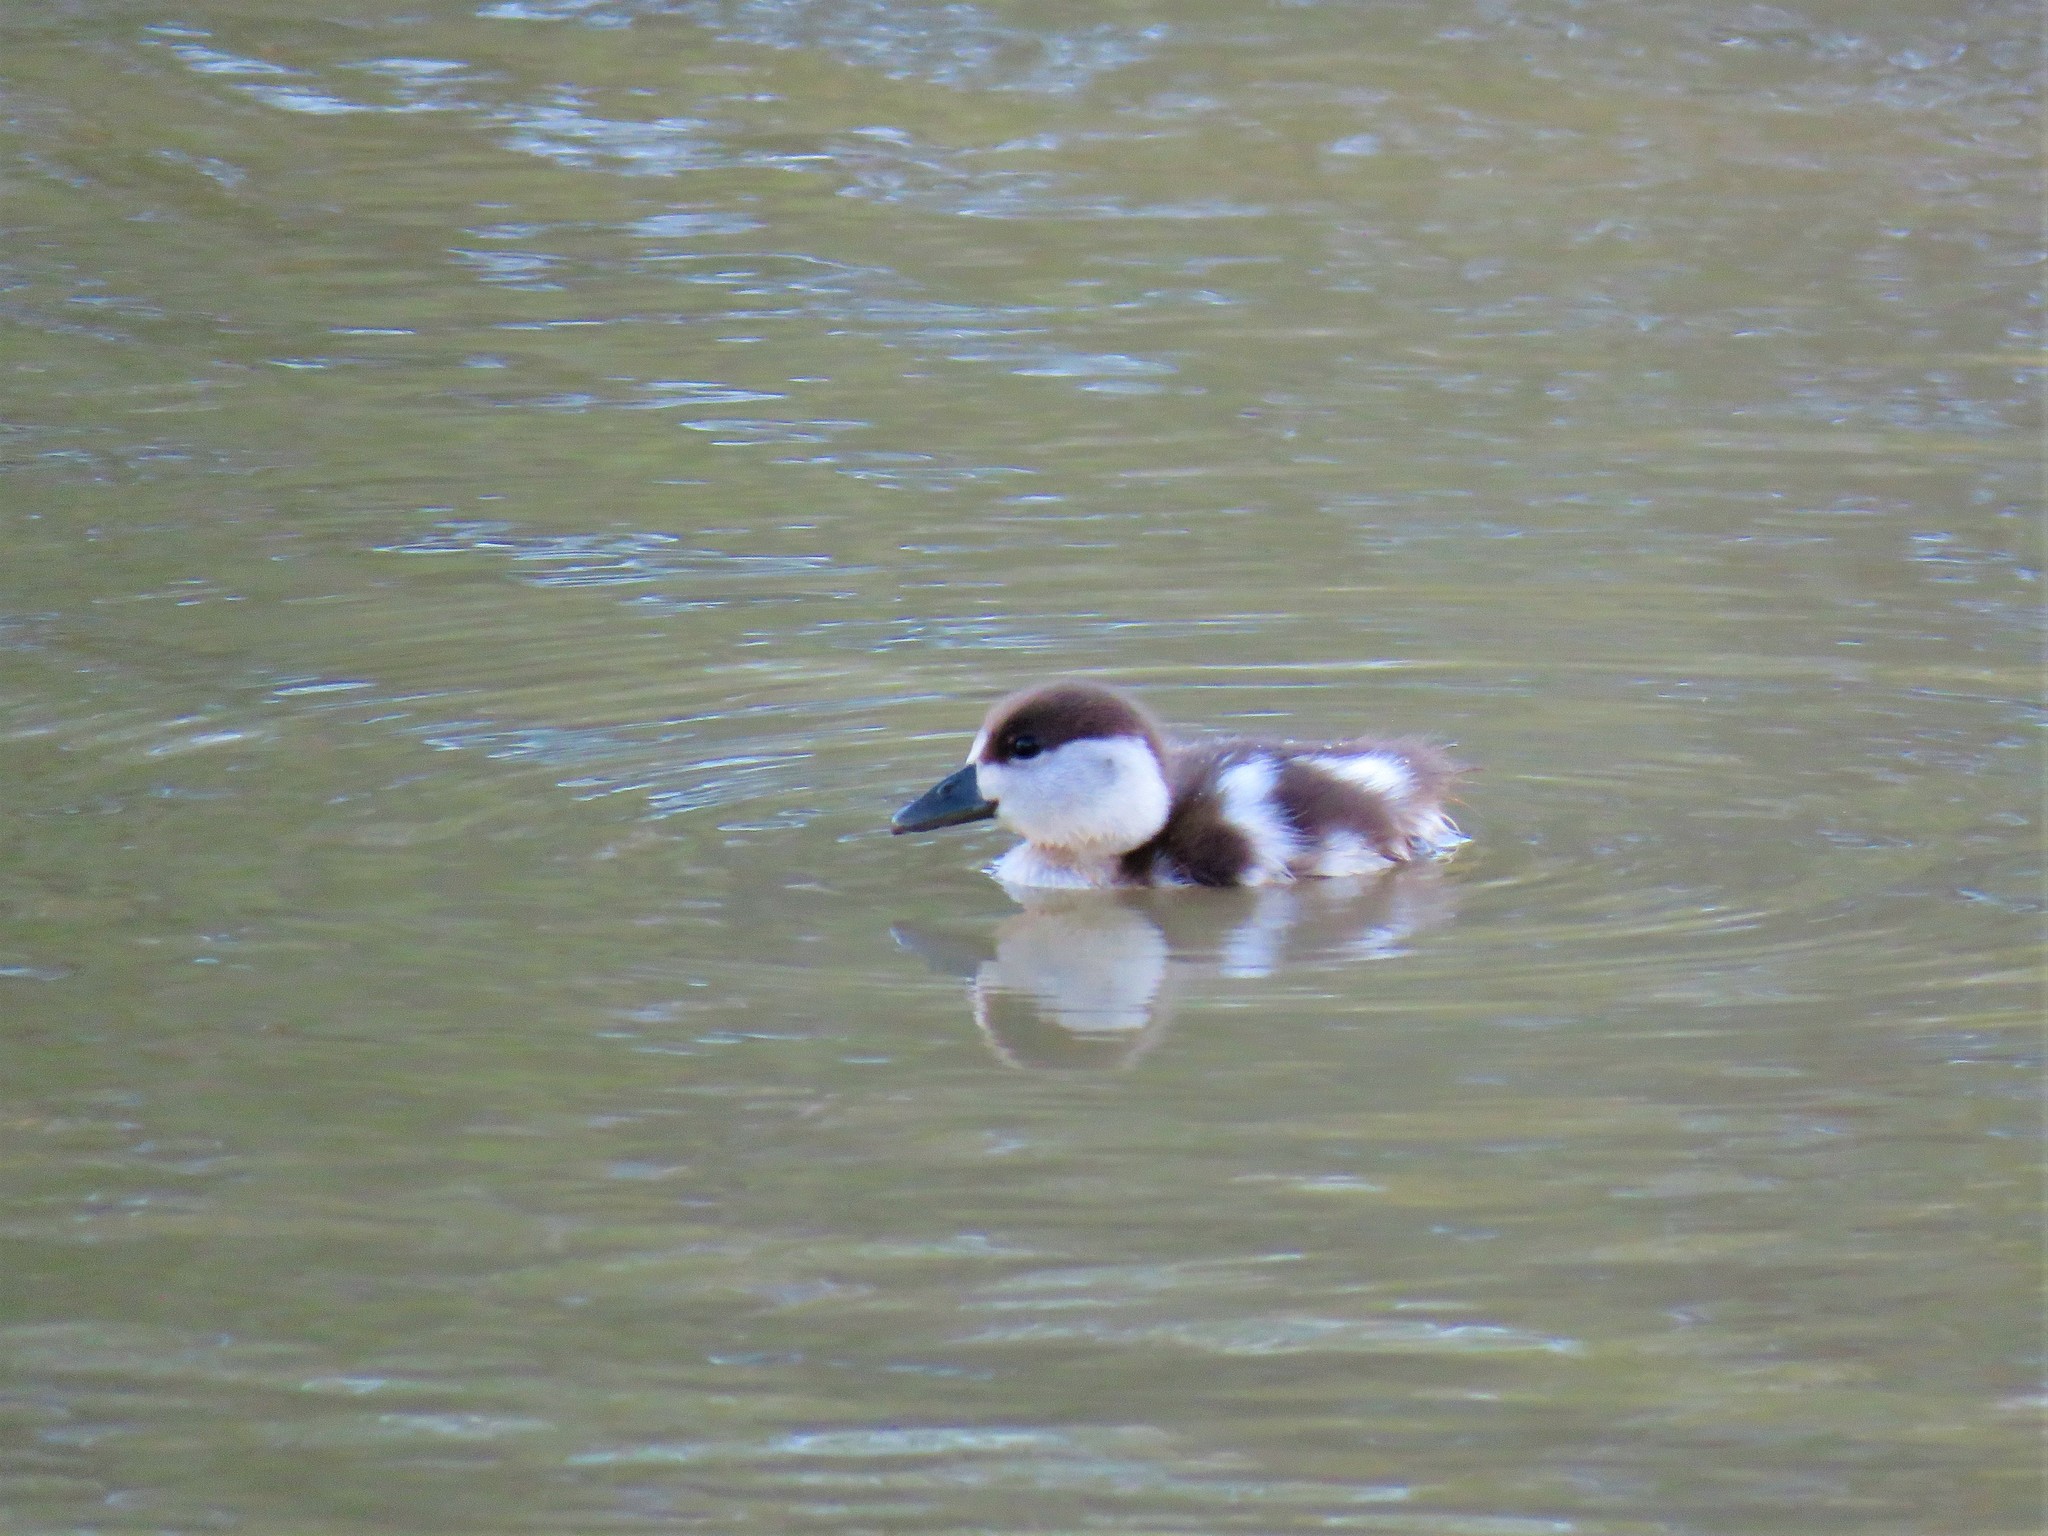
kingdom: Animalia
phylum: Chordata
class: Aves
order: Anseriformes
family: Anatidae
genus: Tadorna
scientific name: Tadorna cana
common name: South african shelduck
